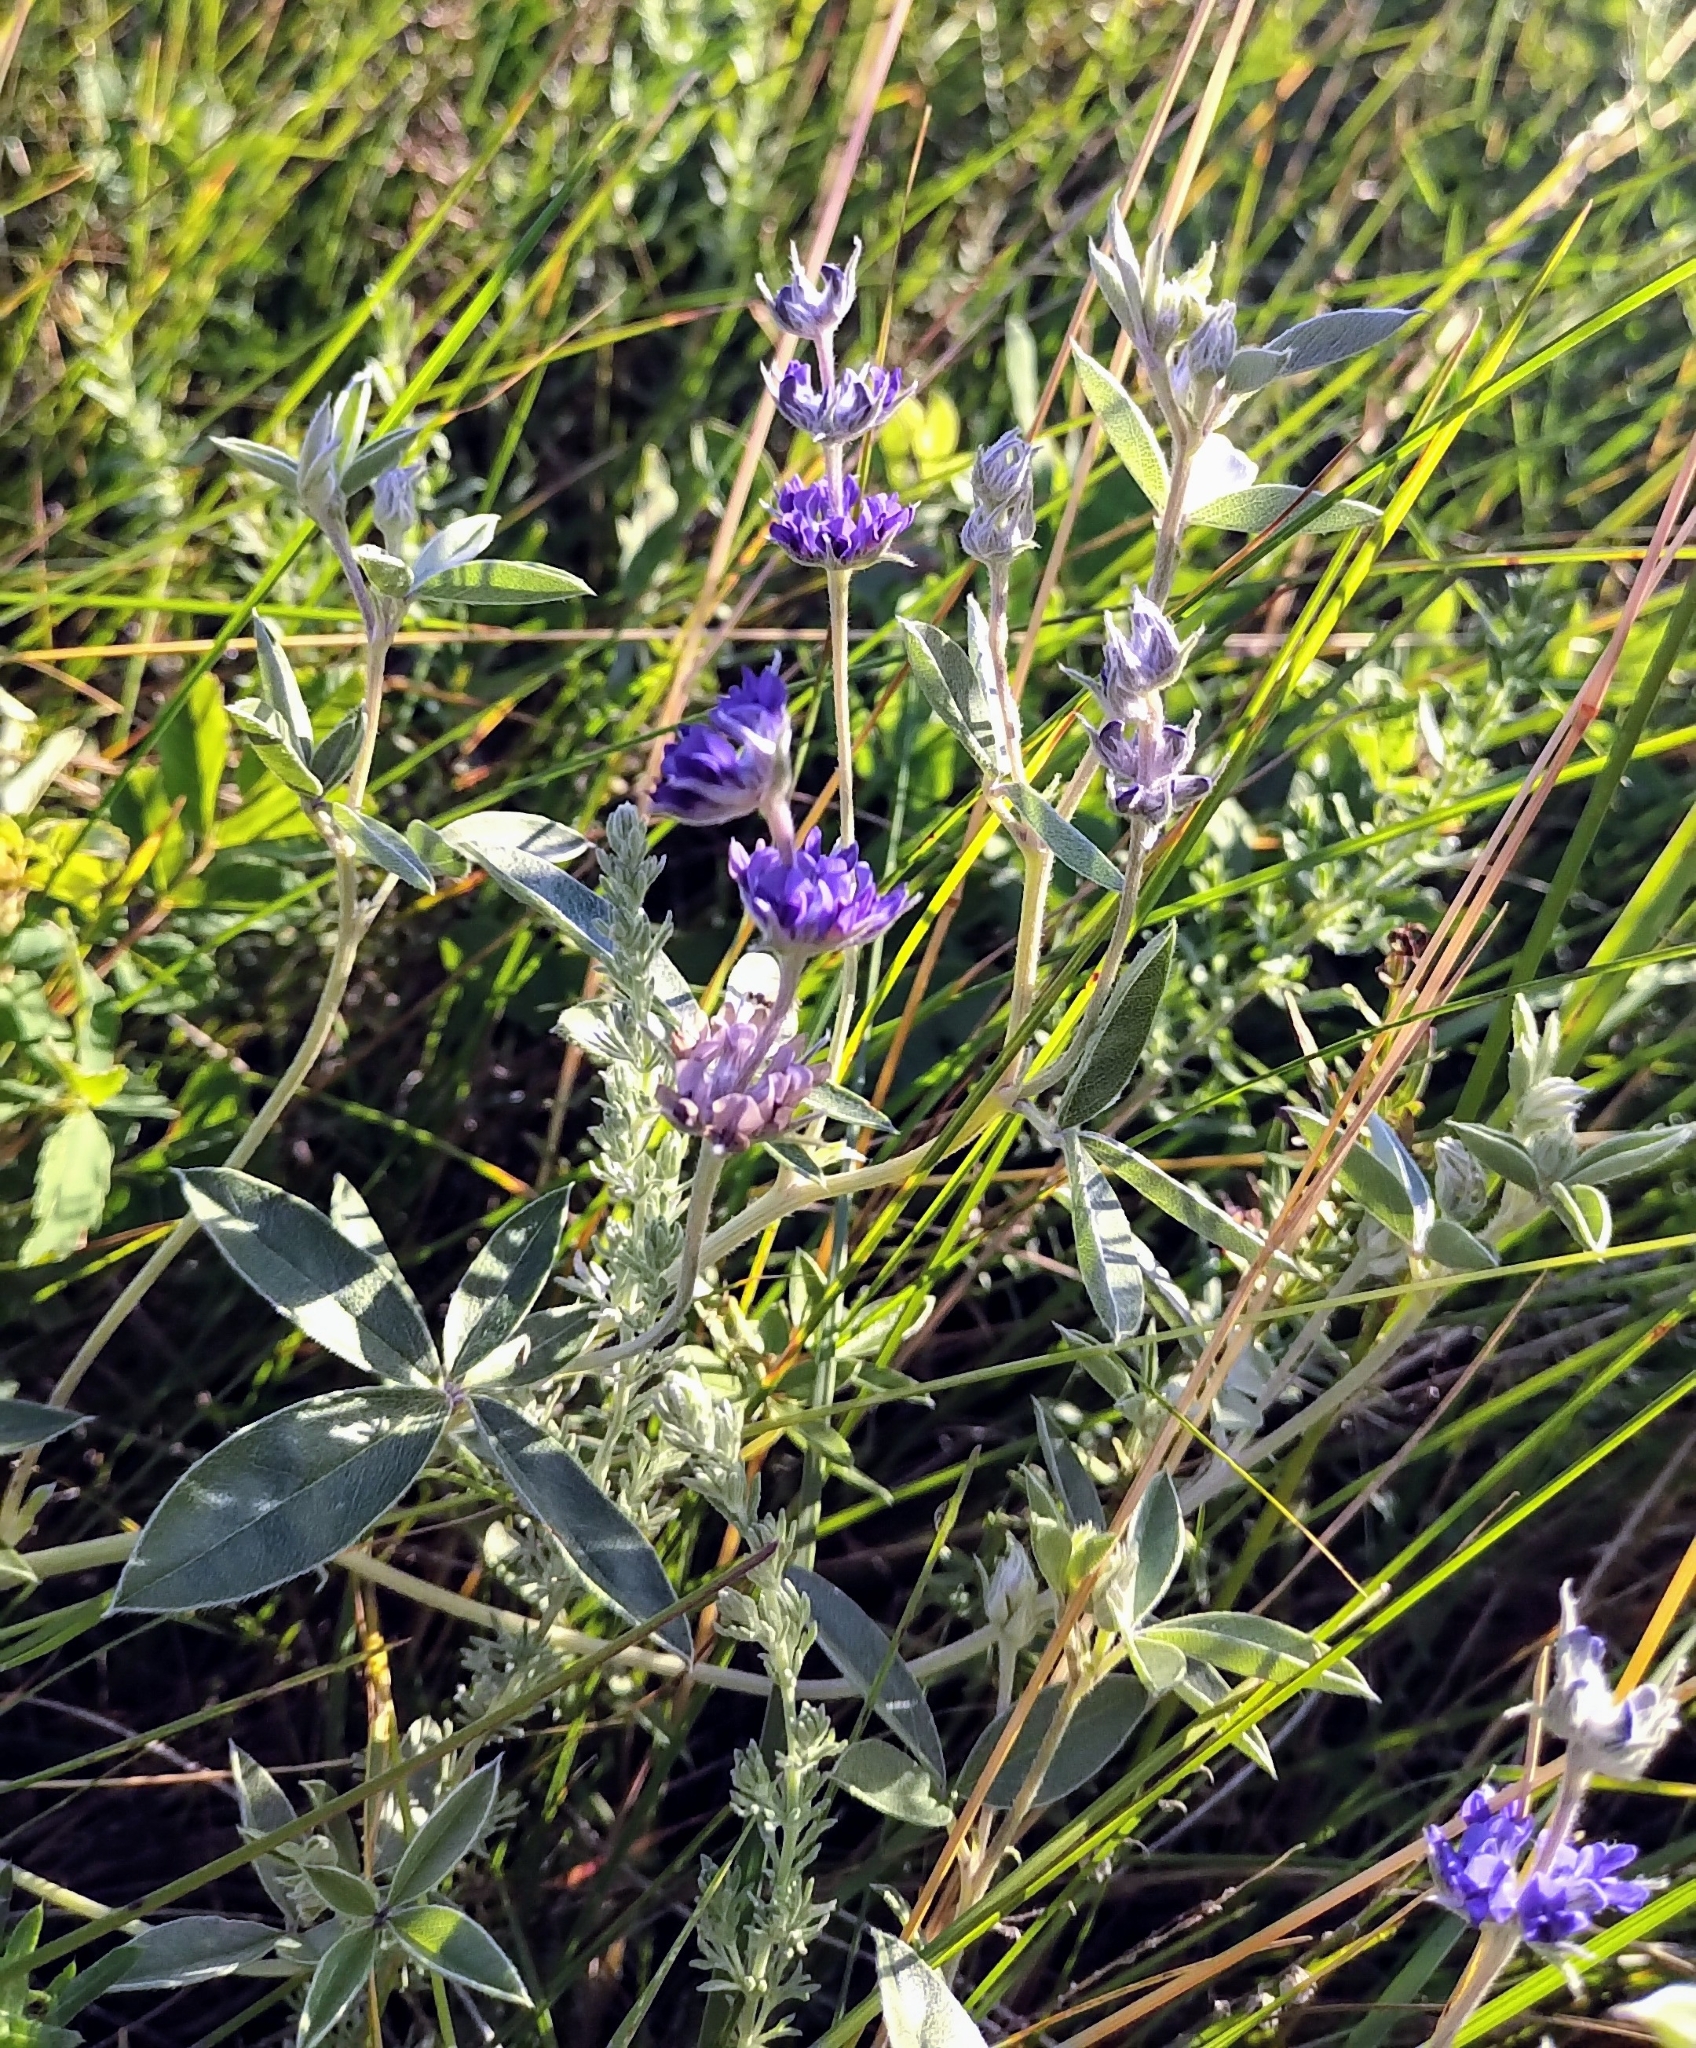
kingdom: Plantae
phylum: Tracheophyta
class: Magnoliopsida
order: Fabales
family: Fabaceae
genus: Pediomelum
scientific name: Pediomelum argophyllum
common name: Silver-leaved indian breadroot
